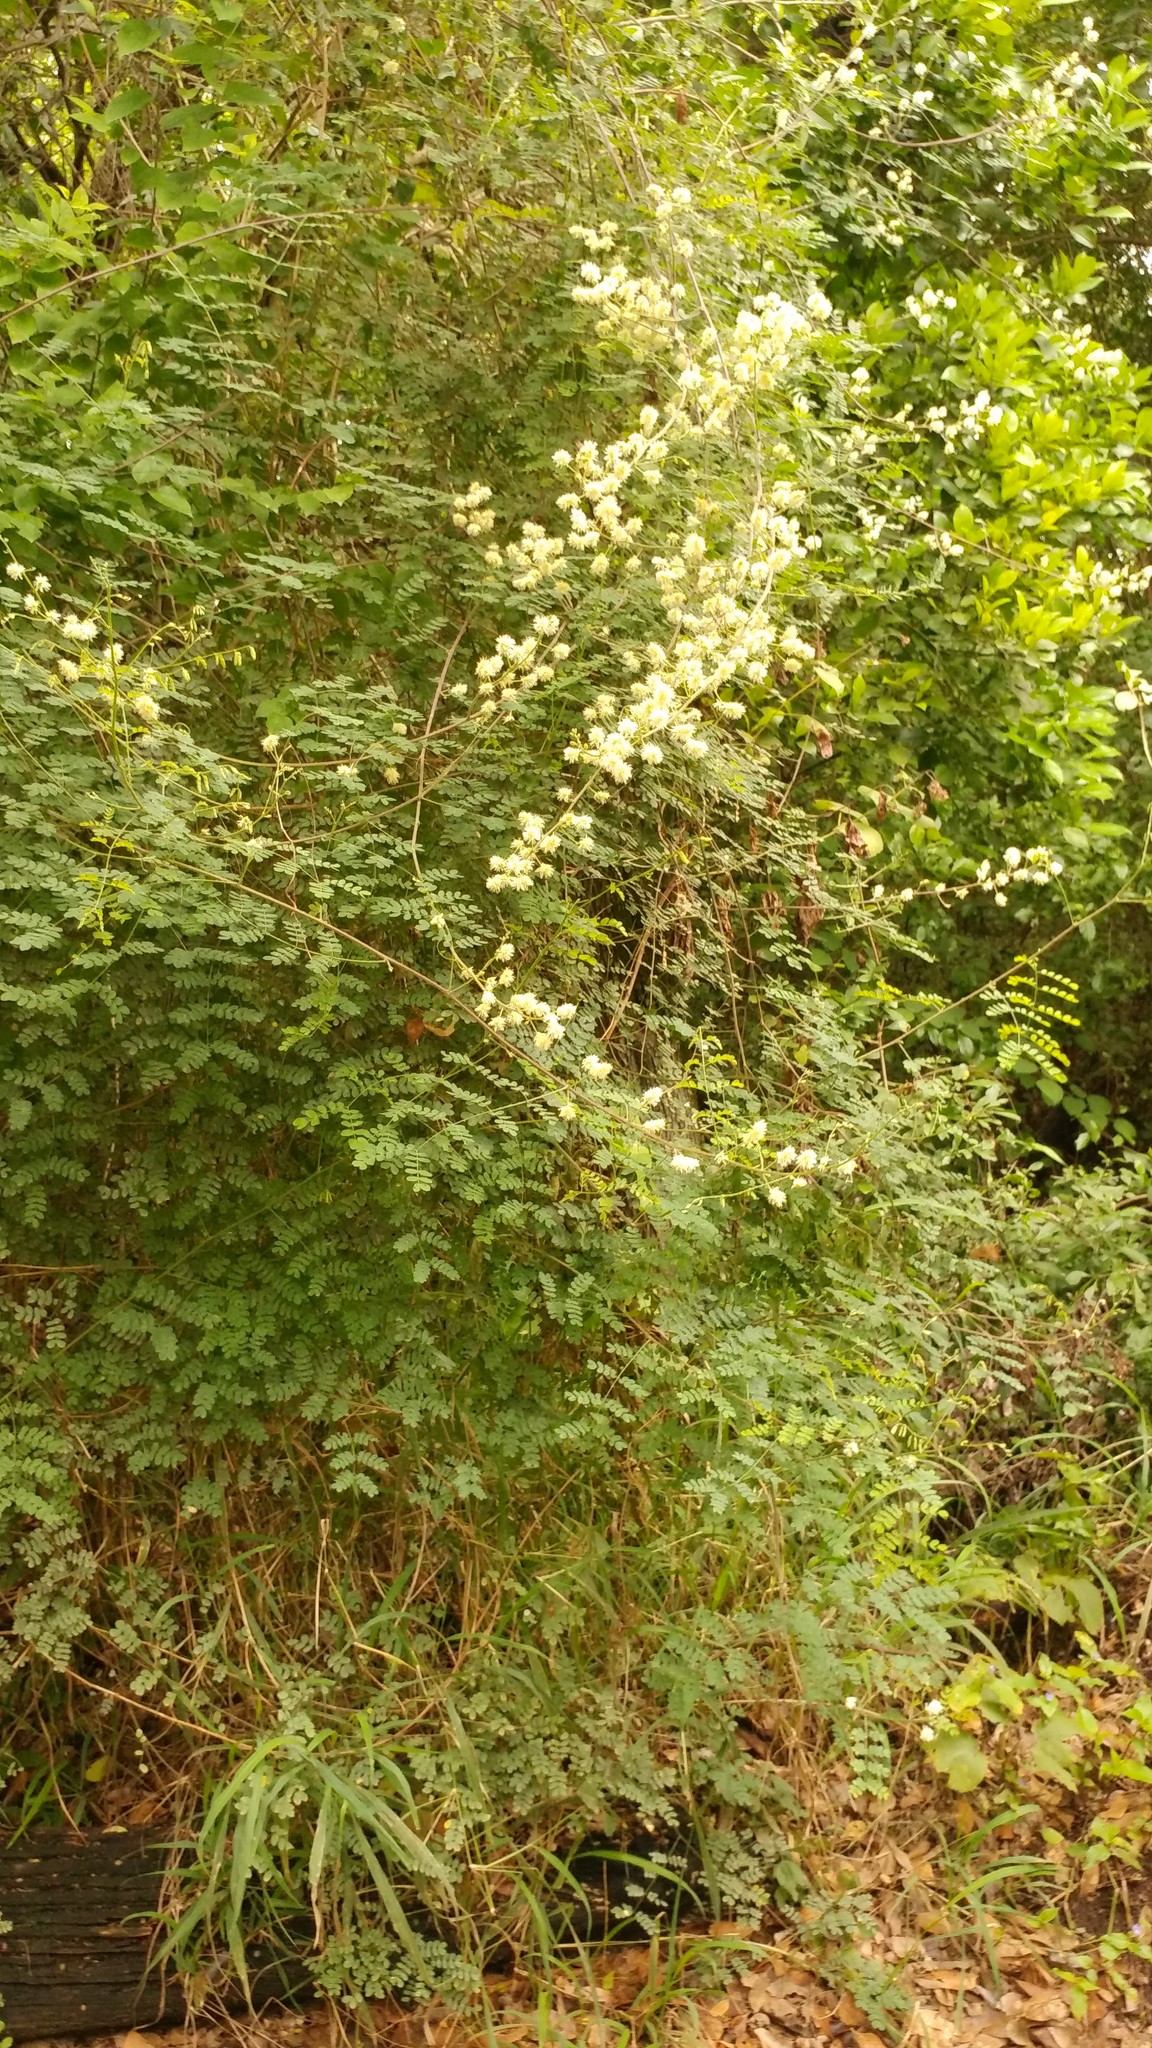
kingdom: Plantae
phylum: Tracheophyta
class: Magnoliopsida
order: Fabales
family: Fabaceae
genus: Mimosa
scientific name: Mimosa malacophylla
